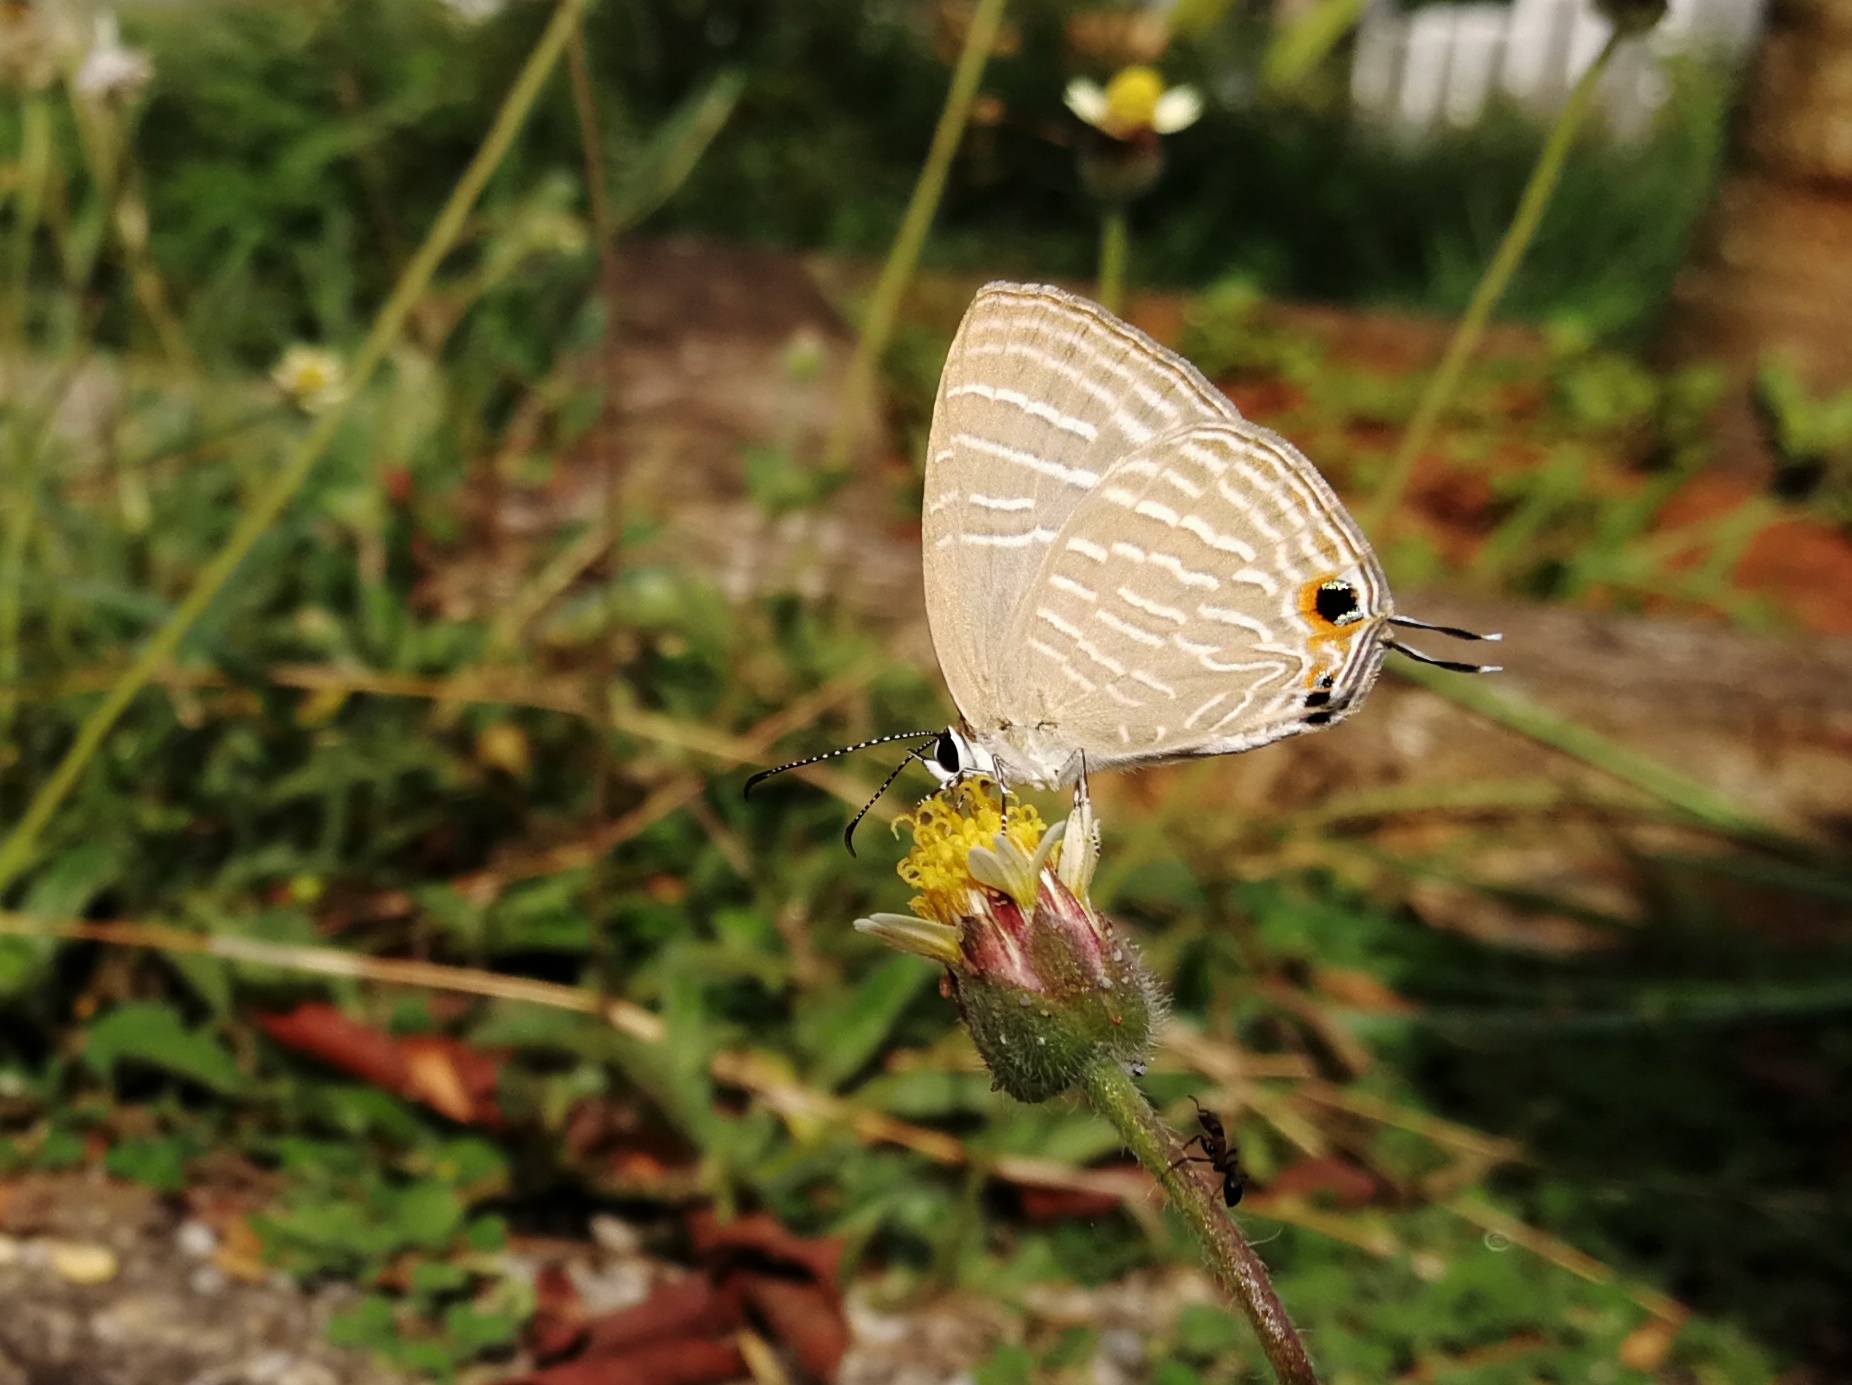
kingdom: Animalia
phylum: Arthropoda
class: Insecta
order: Lepidoptera
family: Lycaenidae
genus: Jamides
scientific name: Jamides celeno
